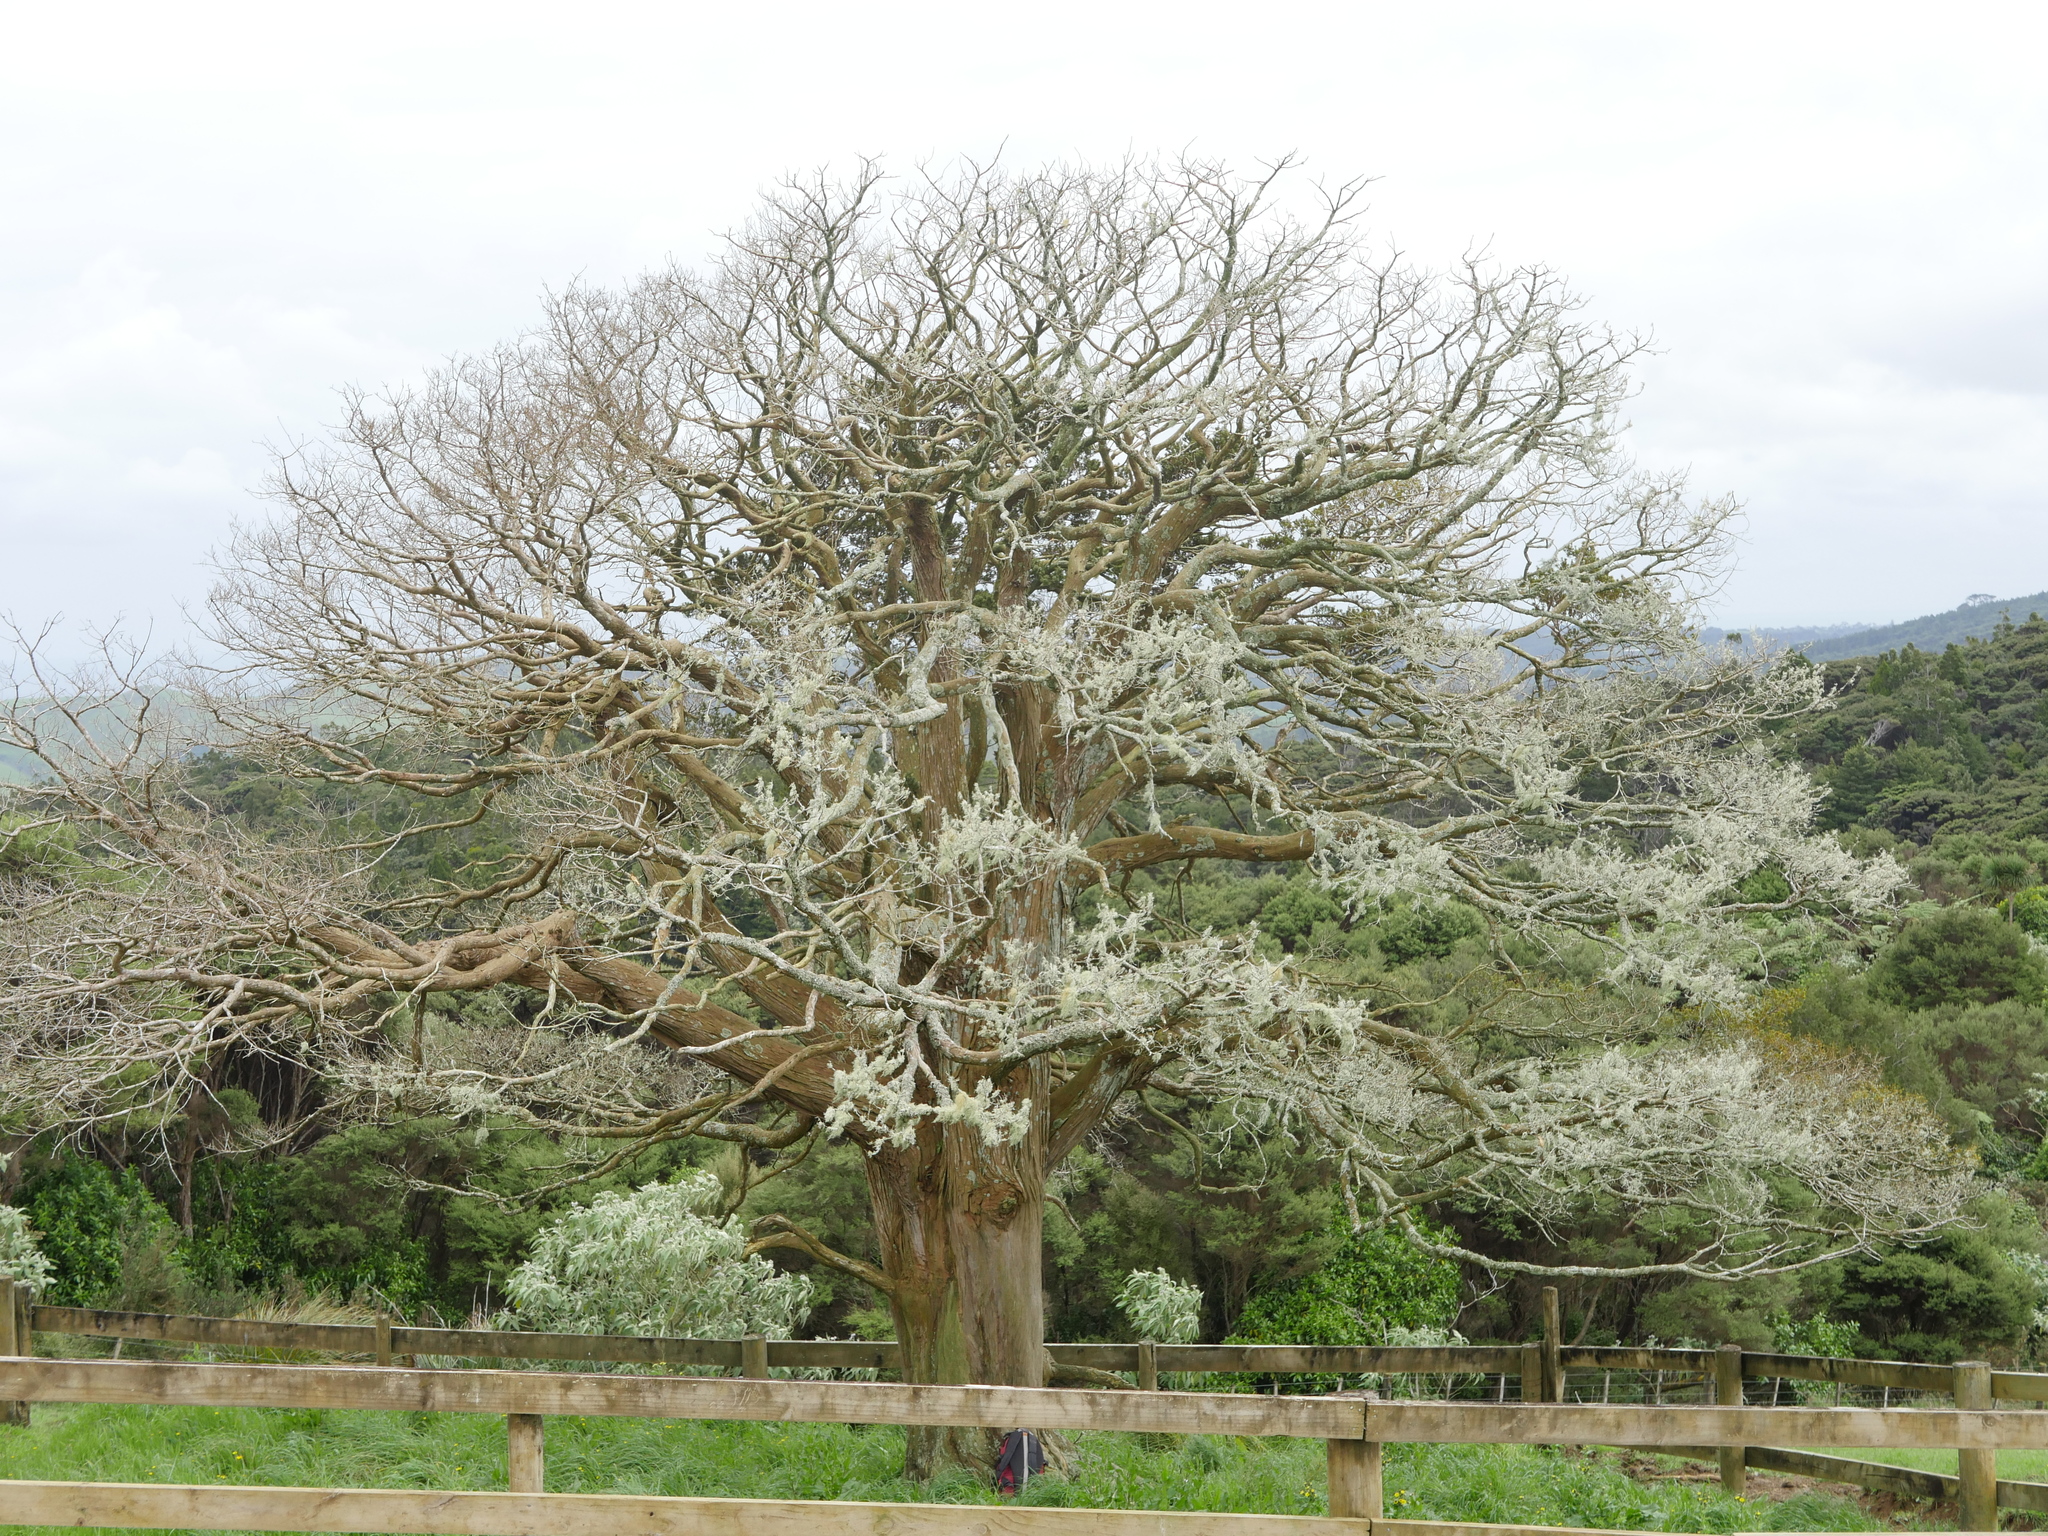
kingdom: Plantae
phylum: Tracheophyta
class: Pinopsida
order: Pinales
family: Podocarpaceae
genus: Podocarpus
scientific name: Podocarpus totara
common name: Totara
